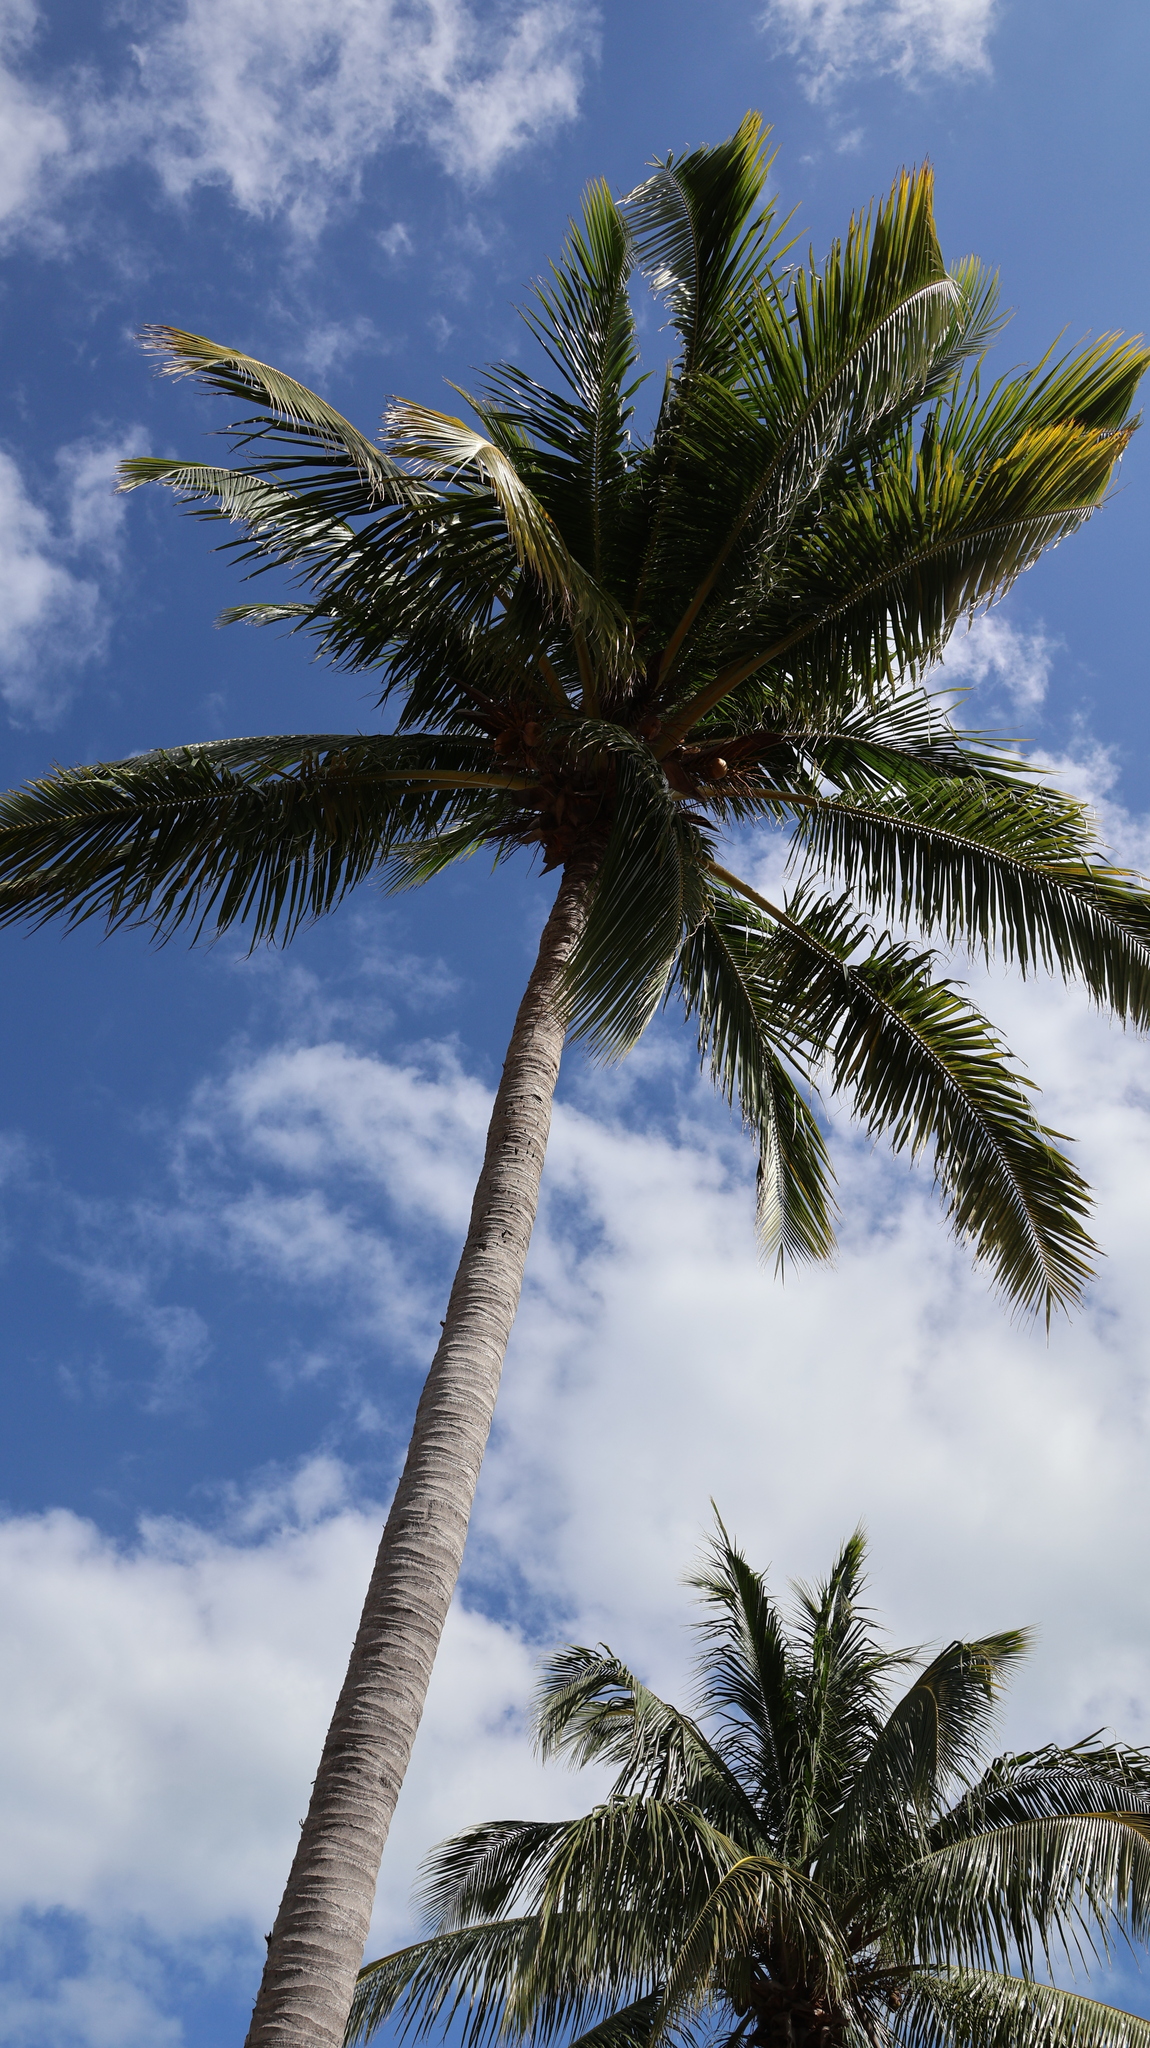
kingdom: Plantae
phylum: Tracheophyta
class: Liliopsida
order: Arecales
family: Arecaceae
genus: Cocos
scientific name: Cocos nucifera
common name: Coconut palm
